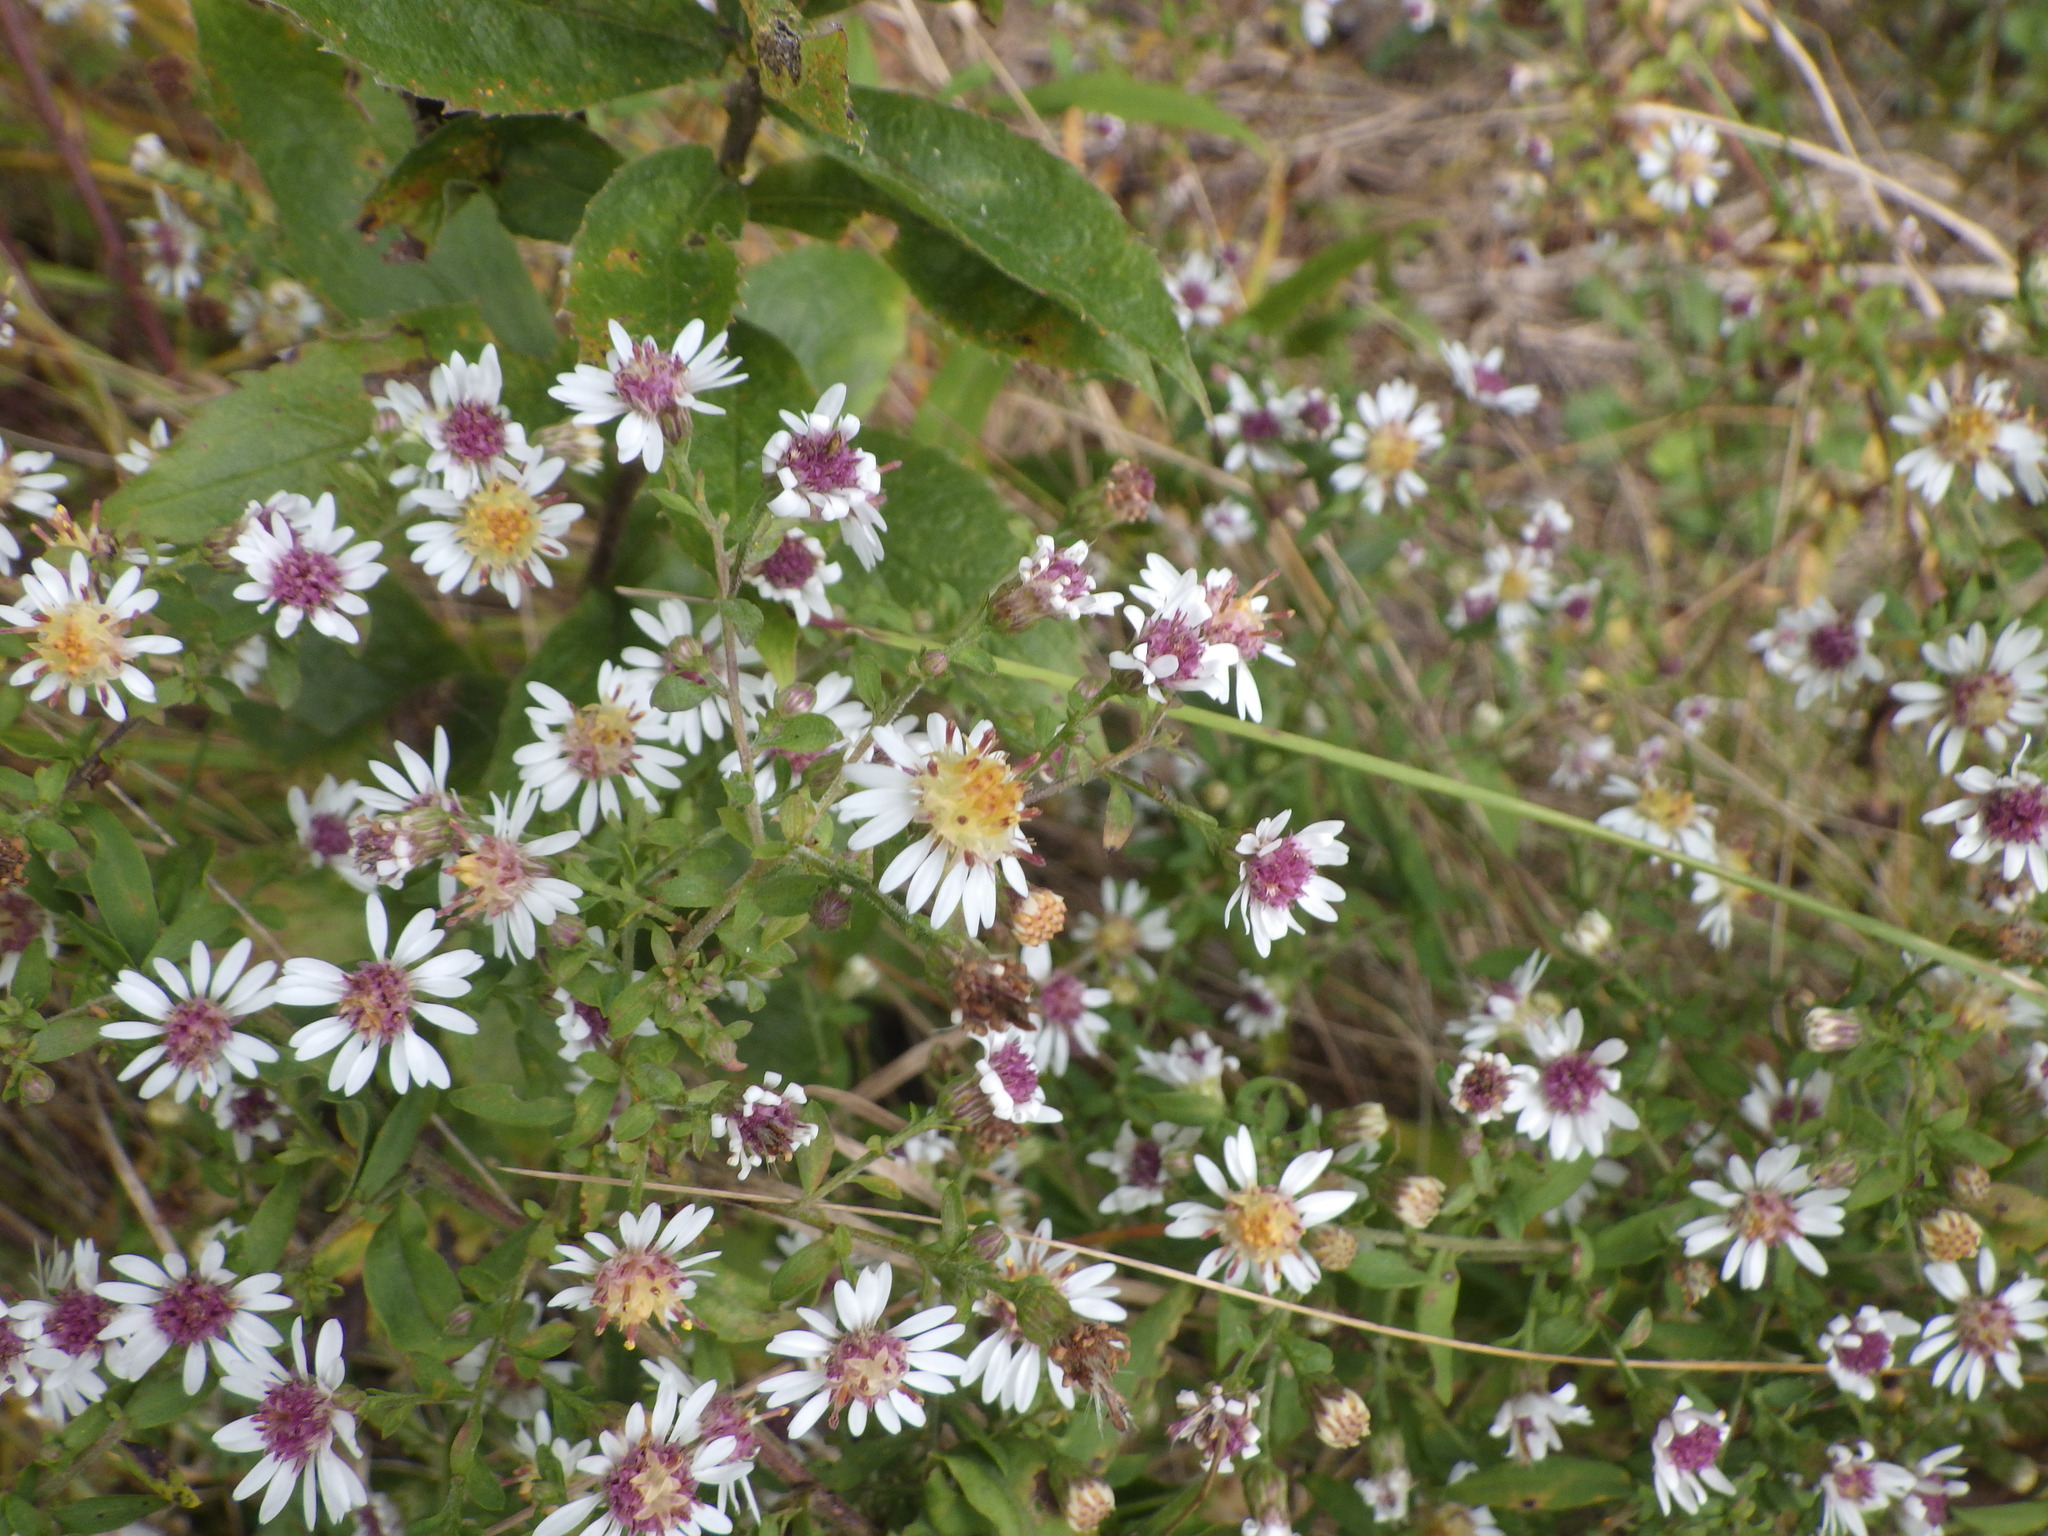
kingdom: Plantae
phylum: Tracheophyta
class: Magnoliopsida
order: Asterales
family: Asteraceae
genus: Symphyotrichum
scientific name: Symphyotrichum lateriflorum
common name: Calico aster
